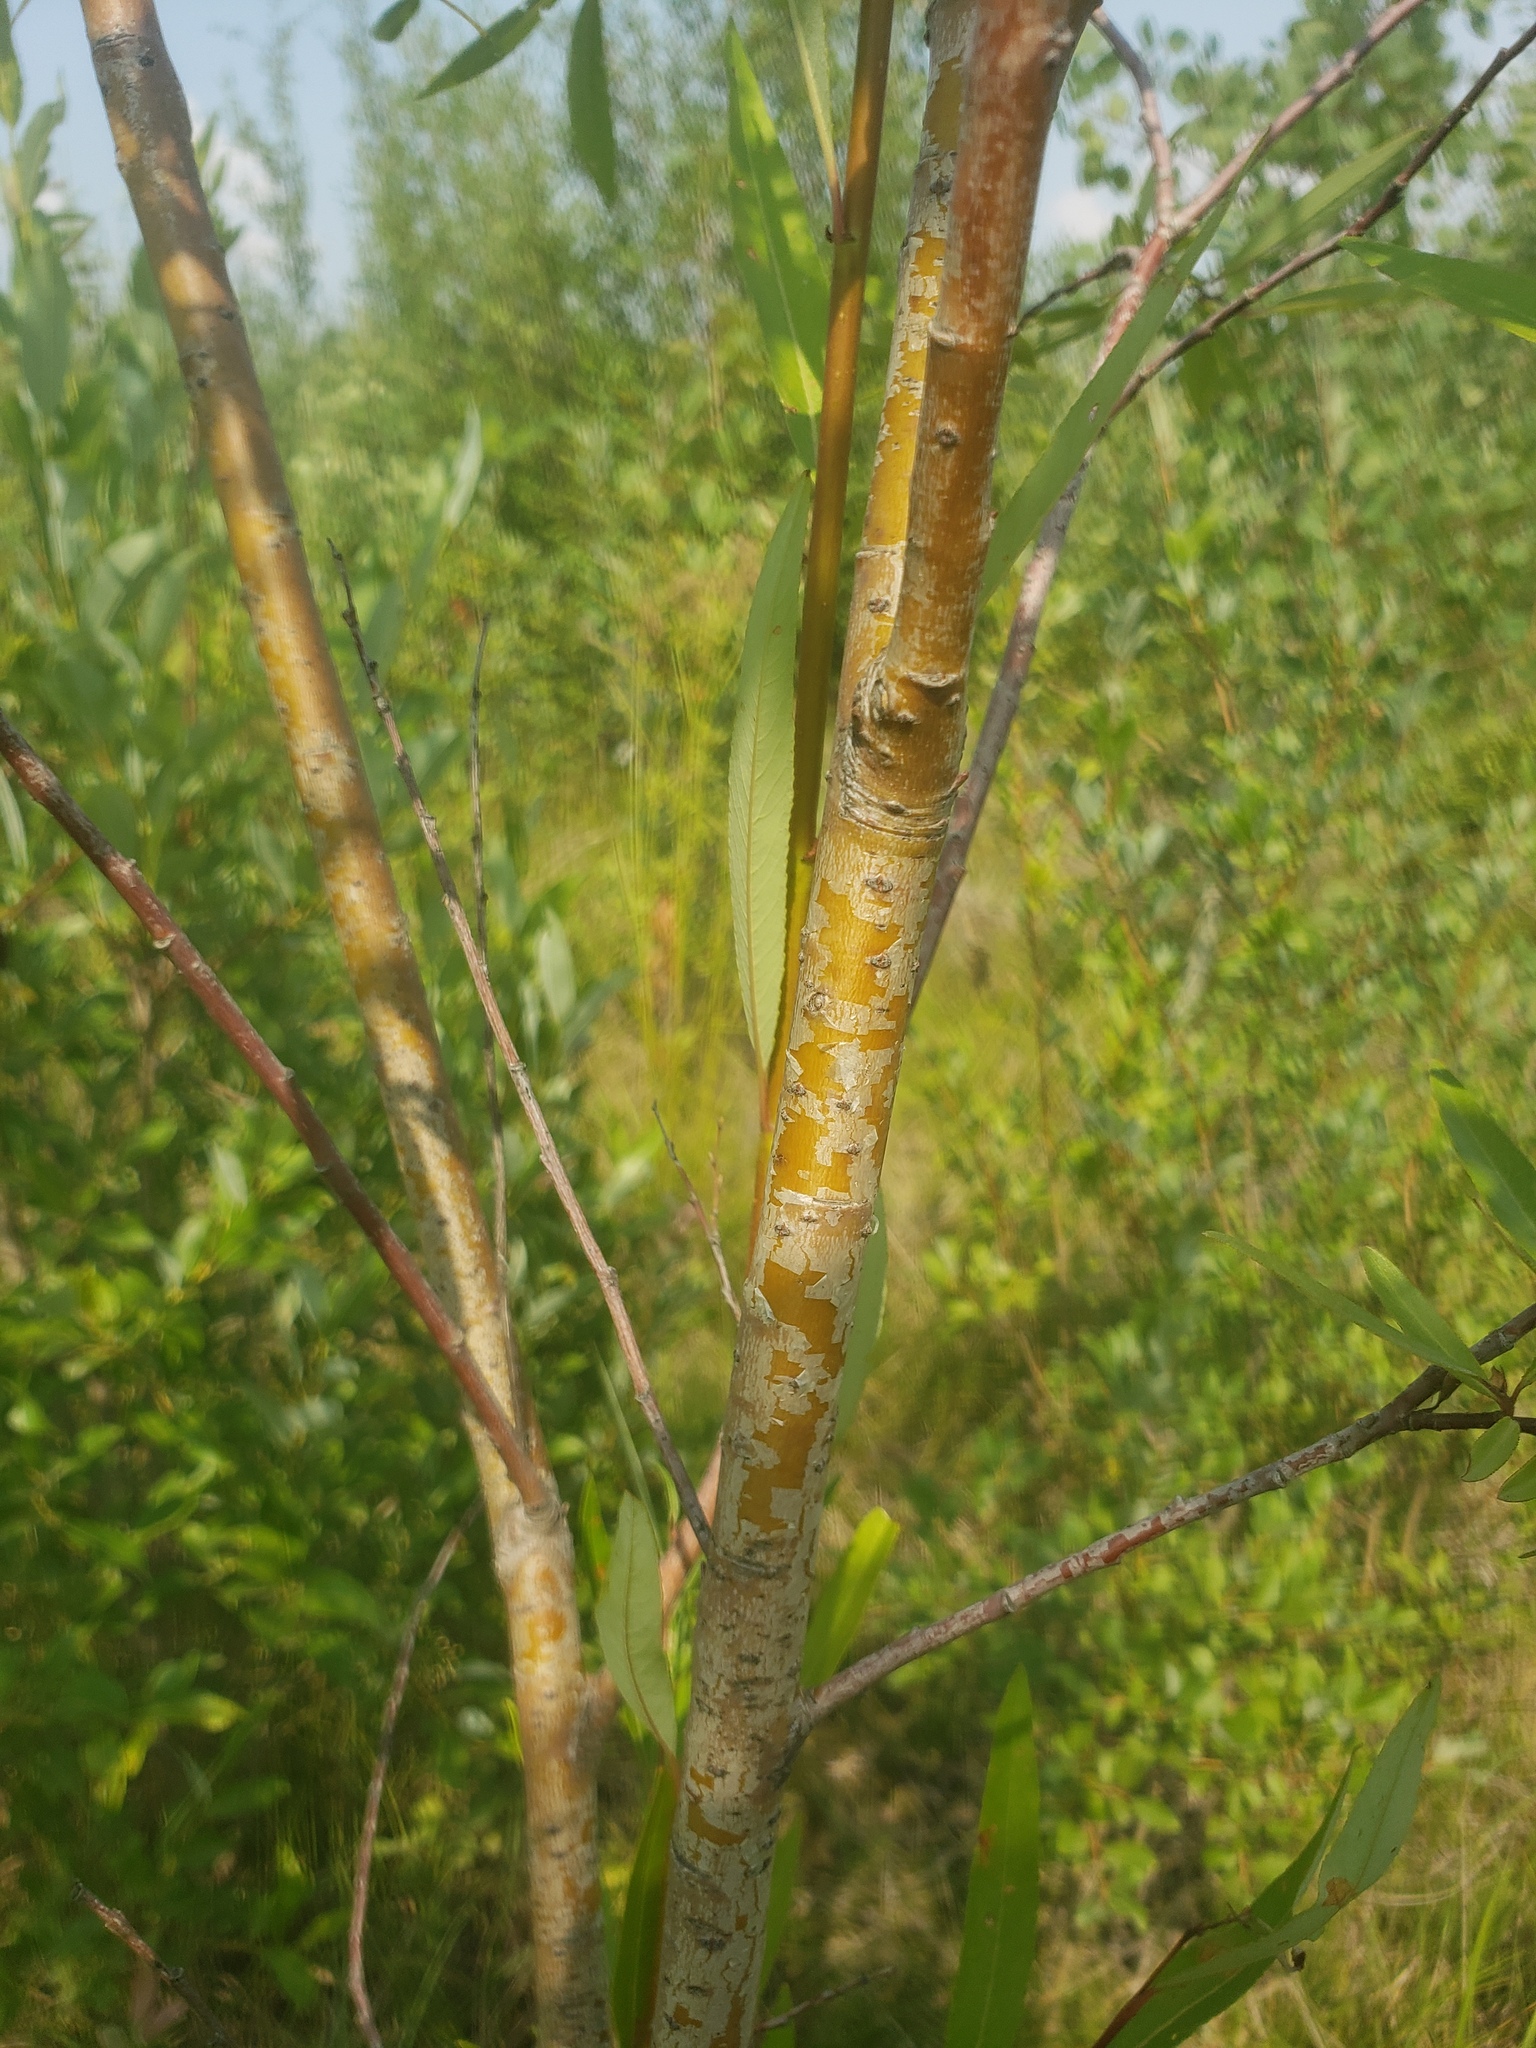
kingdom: Plantae
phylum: Tracheophyta
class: Magnoliopsida
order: Malpighiales
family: Salicaceae
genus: Salix
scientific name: Salix arbusculoides
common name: Little-tree willow
